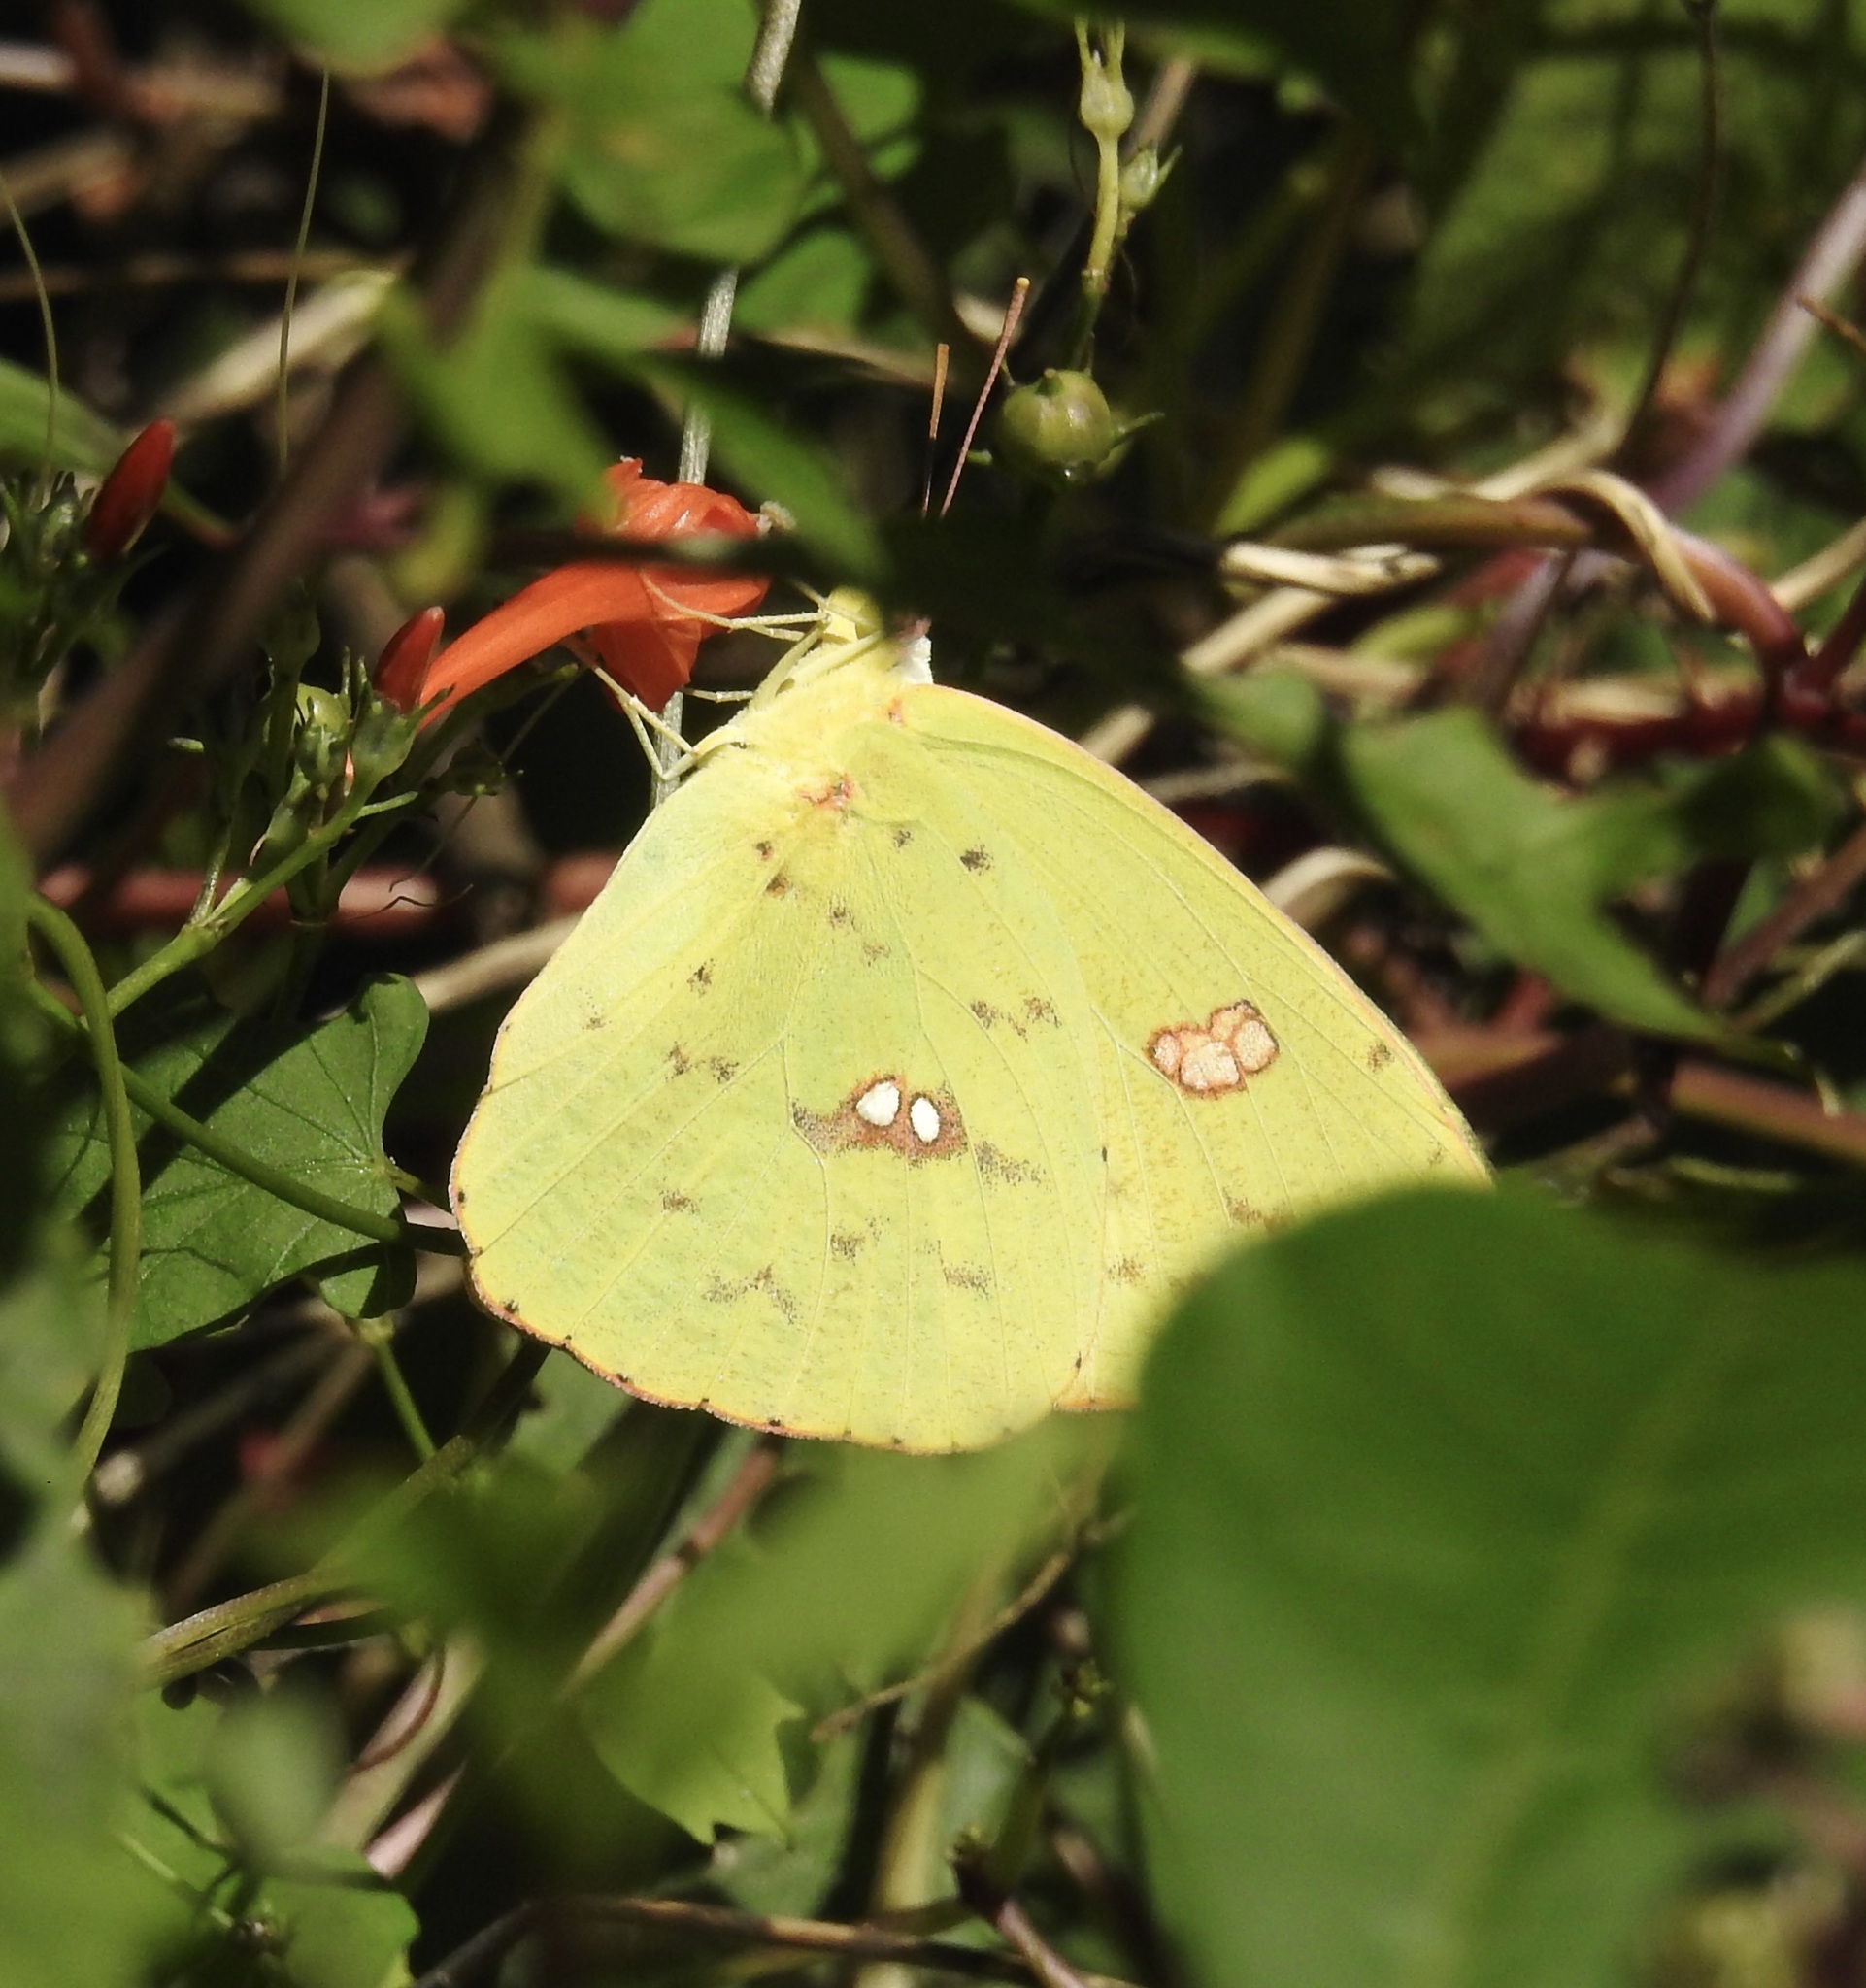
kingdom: Animalia
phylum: Arthropoda
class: Insecta
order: Lepidoptera
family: Pieridae
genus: Phoebis
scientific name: Phoebis sennae
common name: Cloudless sulphur
